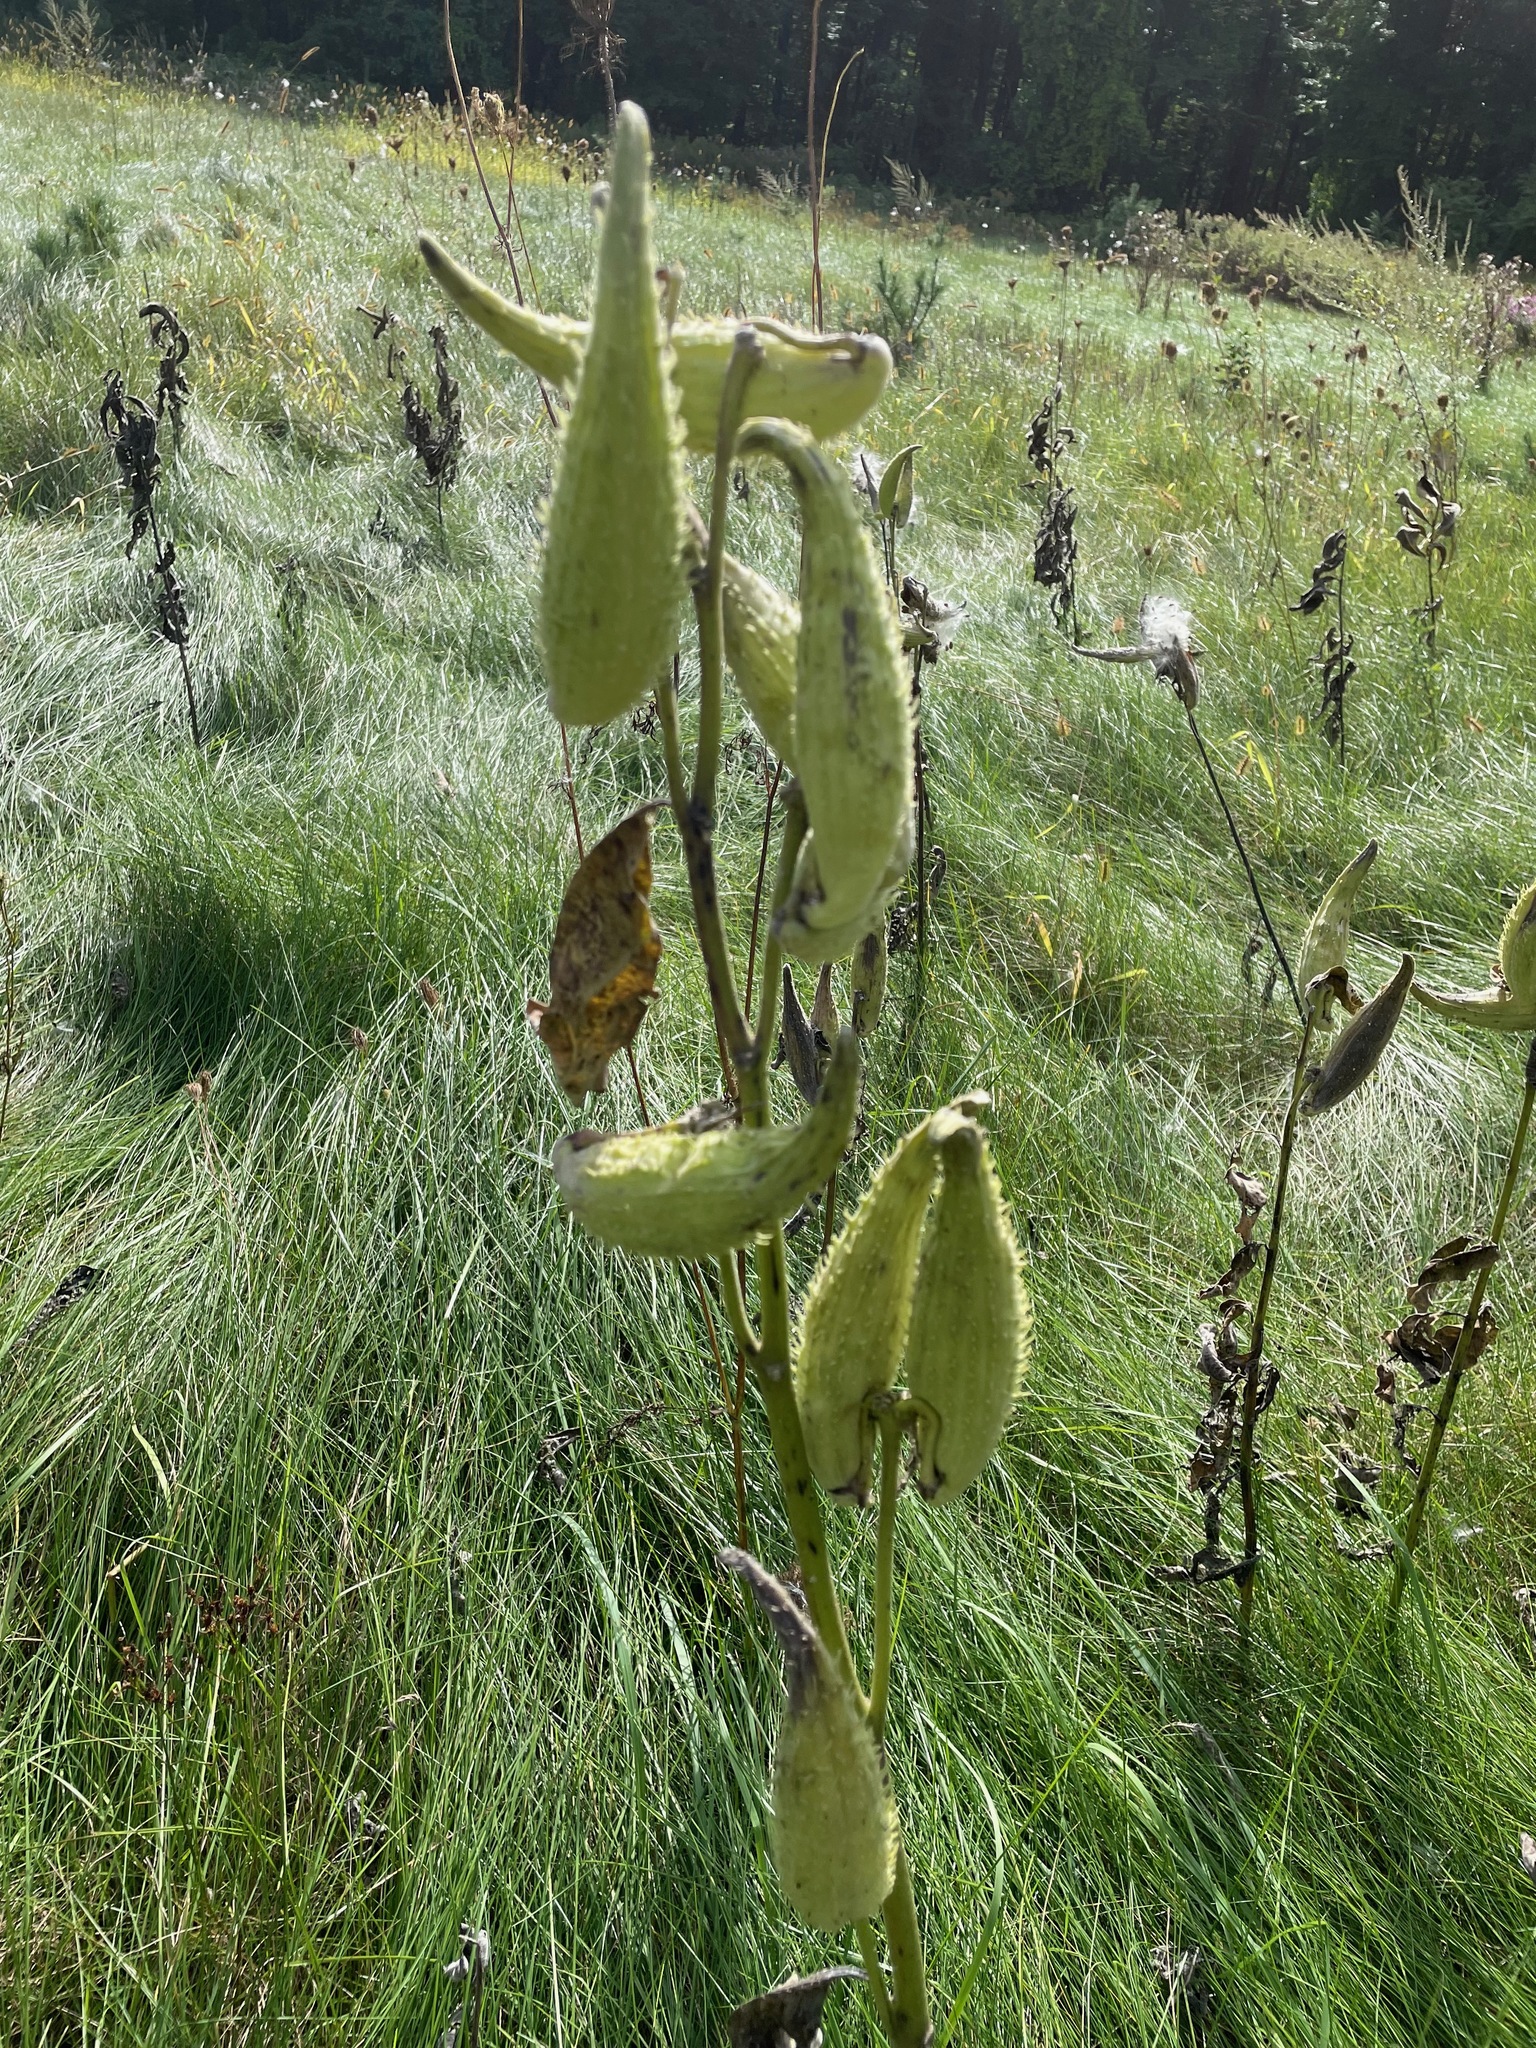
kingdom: Plantae
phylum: Tracheophyta
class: Magnoliopsida
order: Gentianales
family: Apocynaceae
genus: Asclepias
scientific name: Asclepias syriaca
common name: Common milkweed
